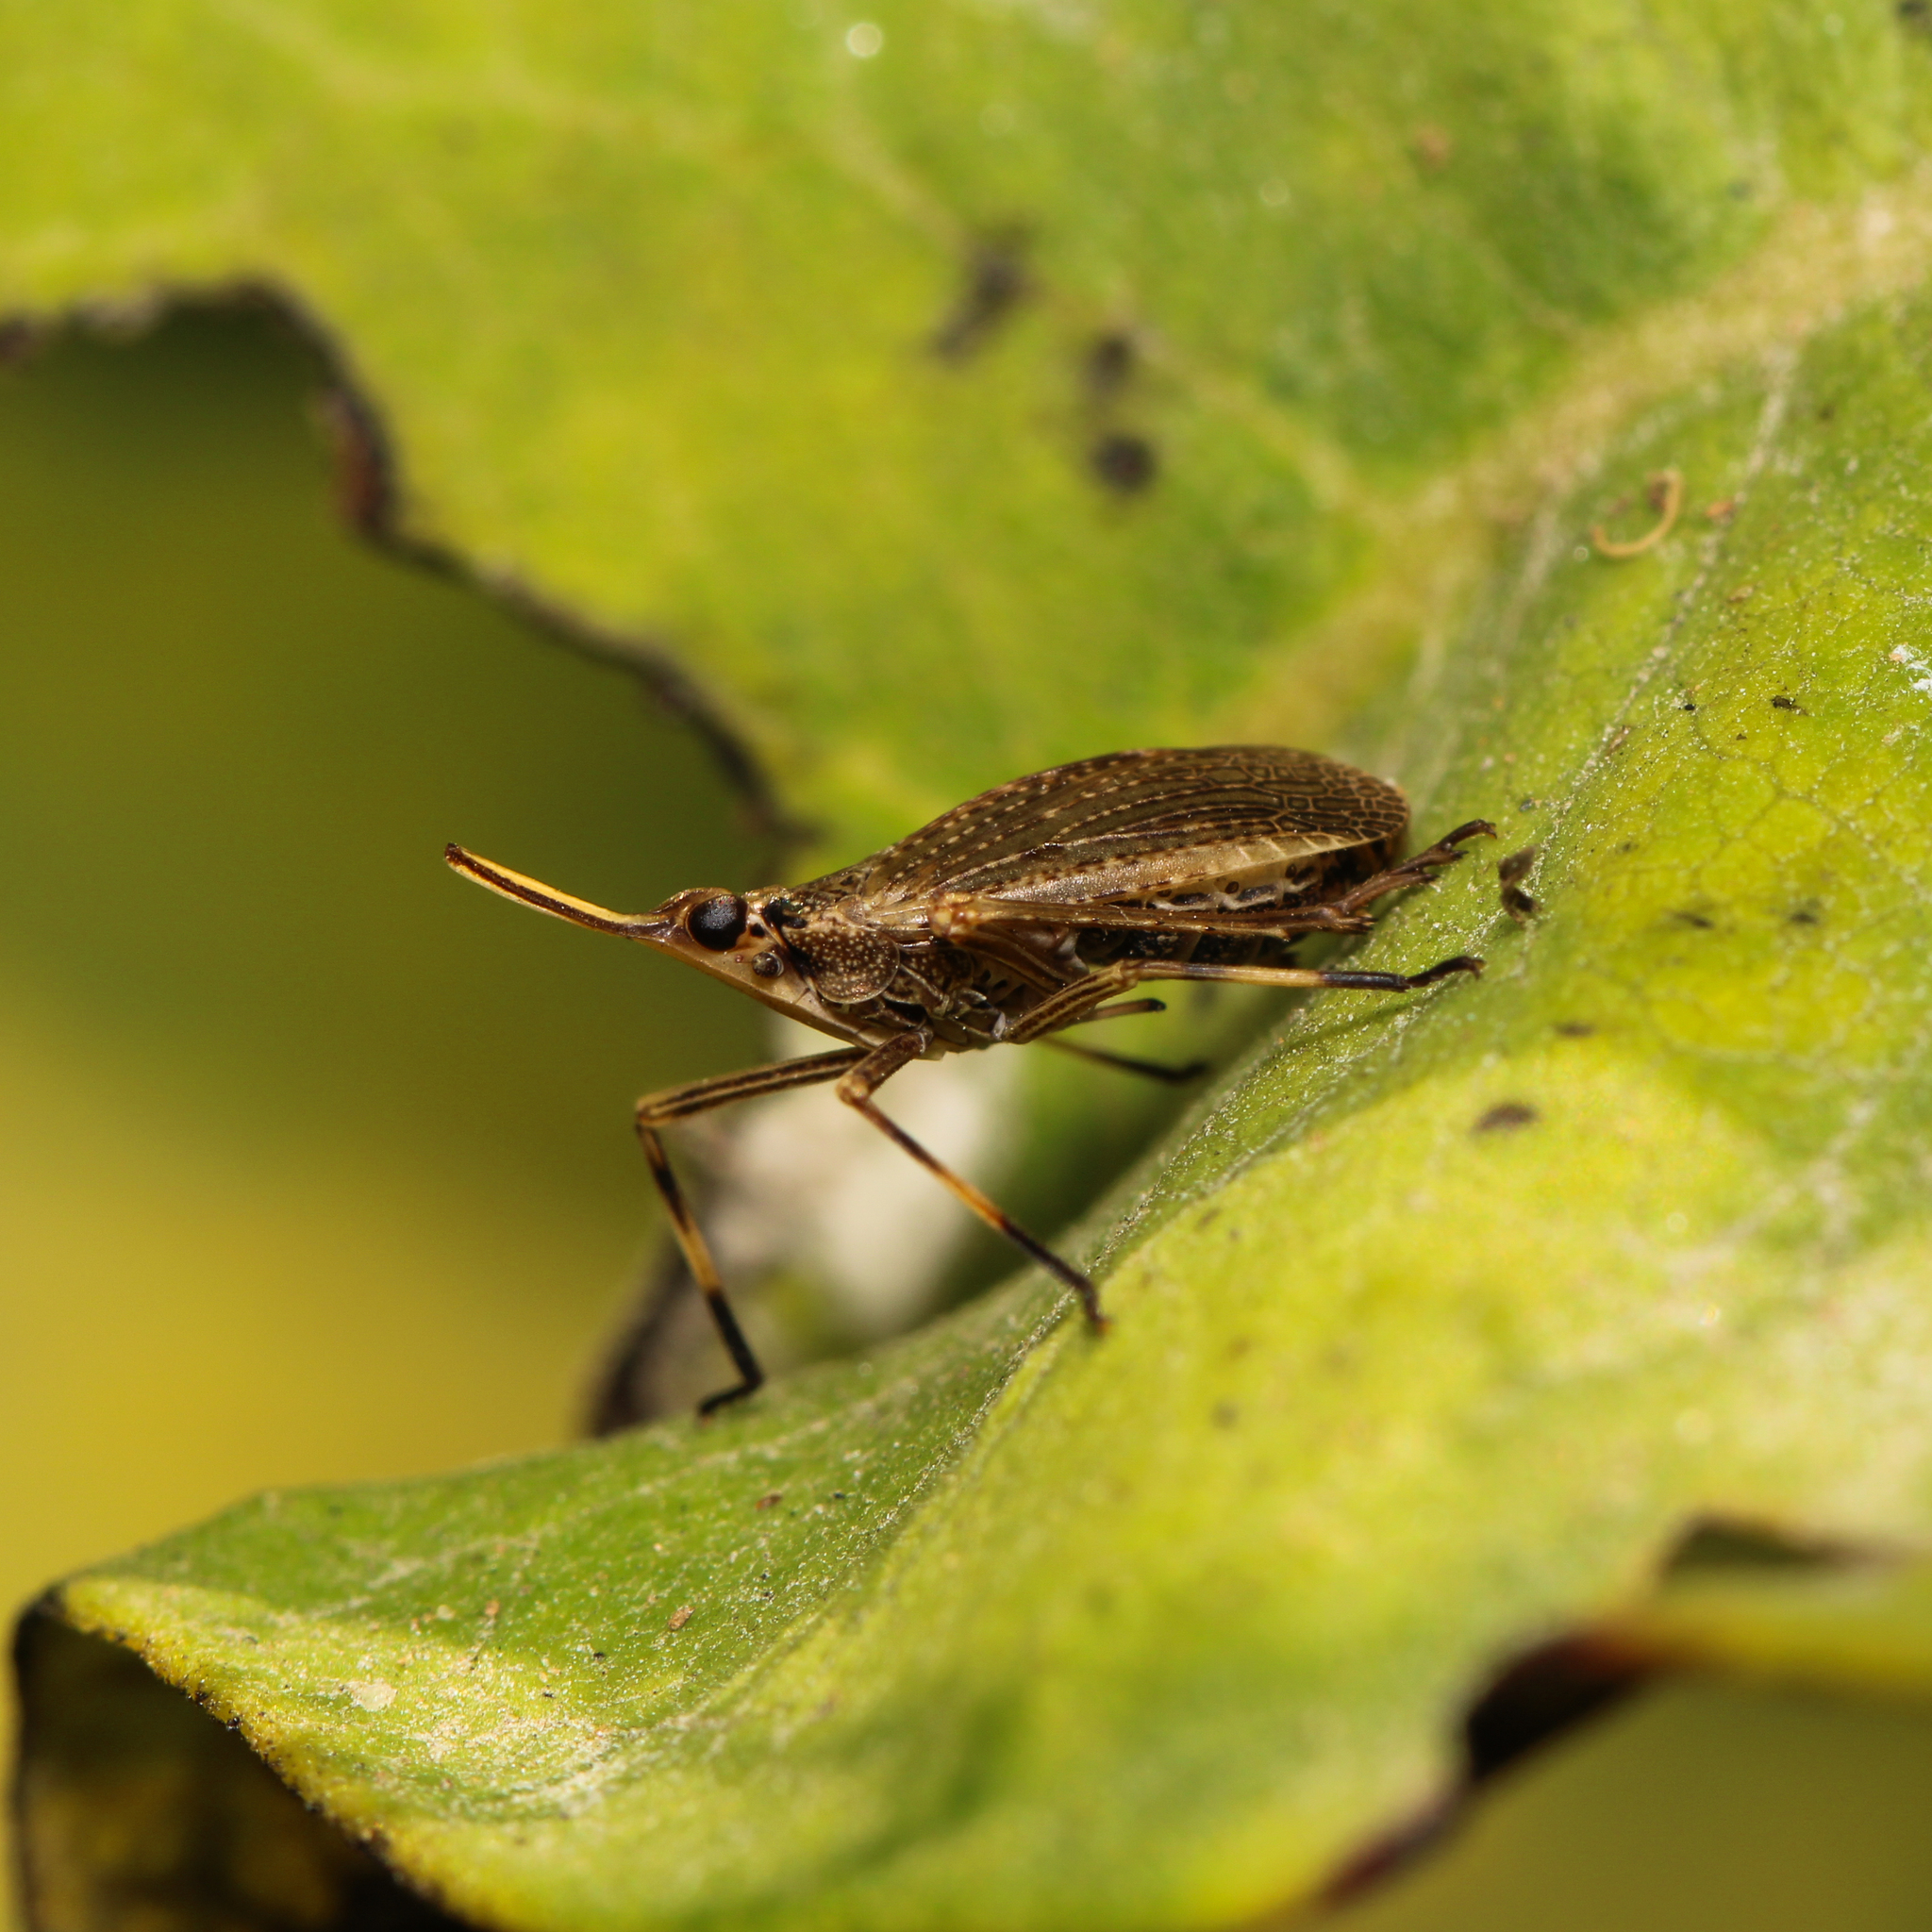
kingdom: Animalia
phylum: Arthropoda
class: Insecta
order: Hemiptera
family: Dictyopharidae
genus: Scolops
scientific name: Scolops sulcipes
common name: Partridge planthopper
